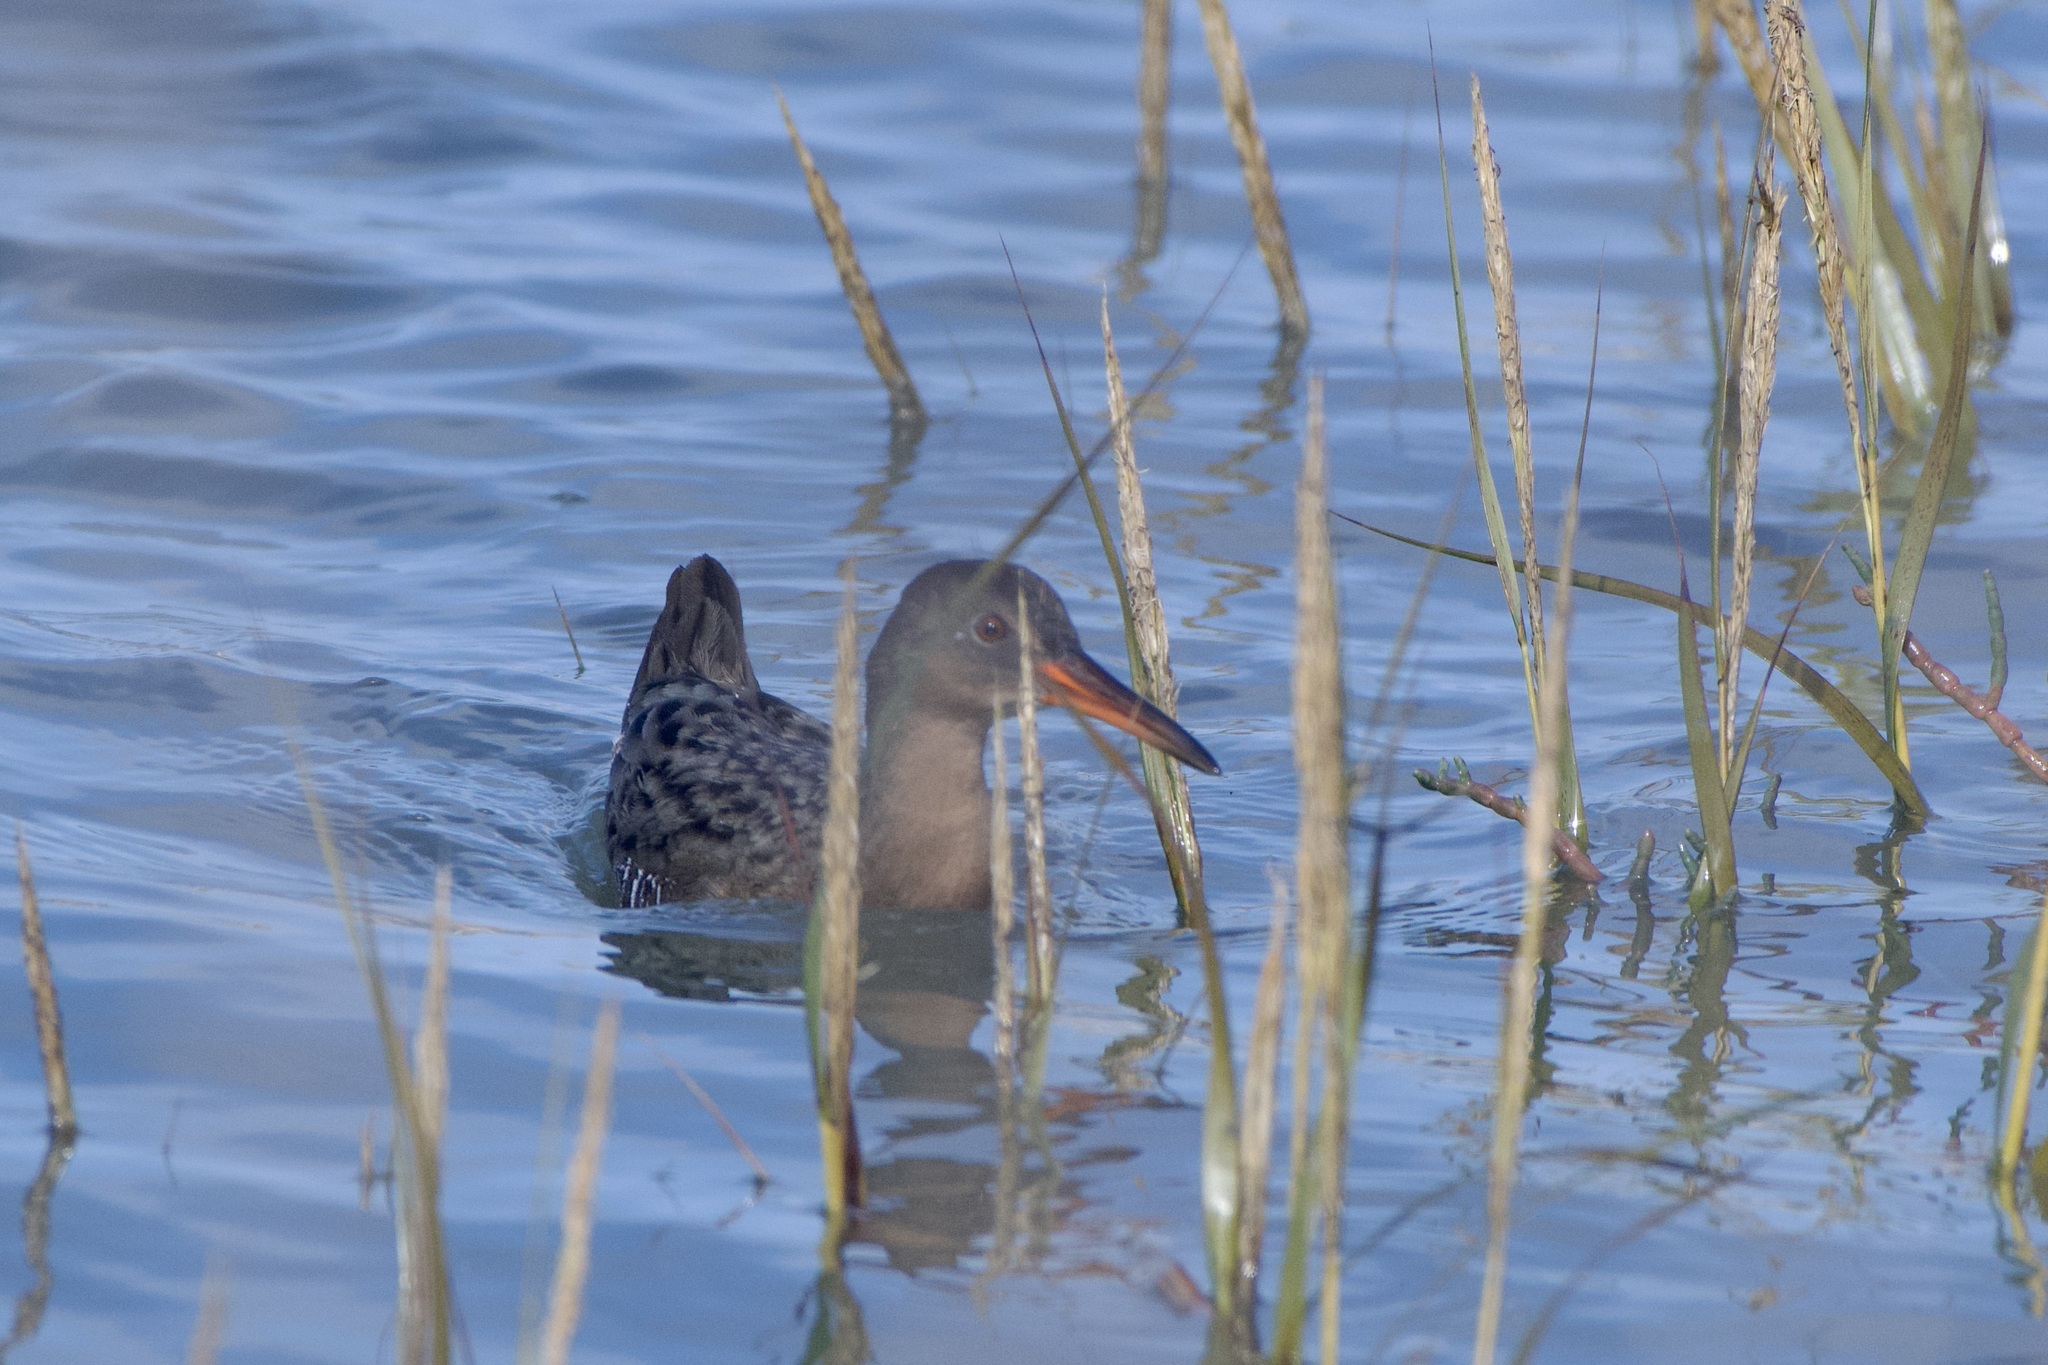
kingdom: Animalia
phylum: Chordata
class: Aves
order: Gruiformes
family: Rallidae
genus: Rallus
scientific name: Rallus limicola
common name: Virginia rail
